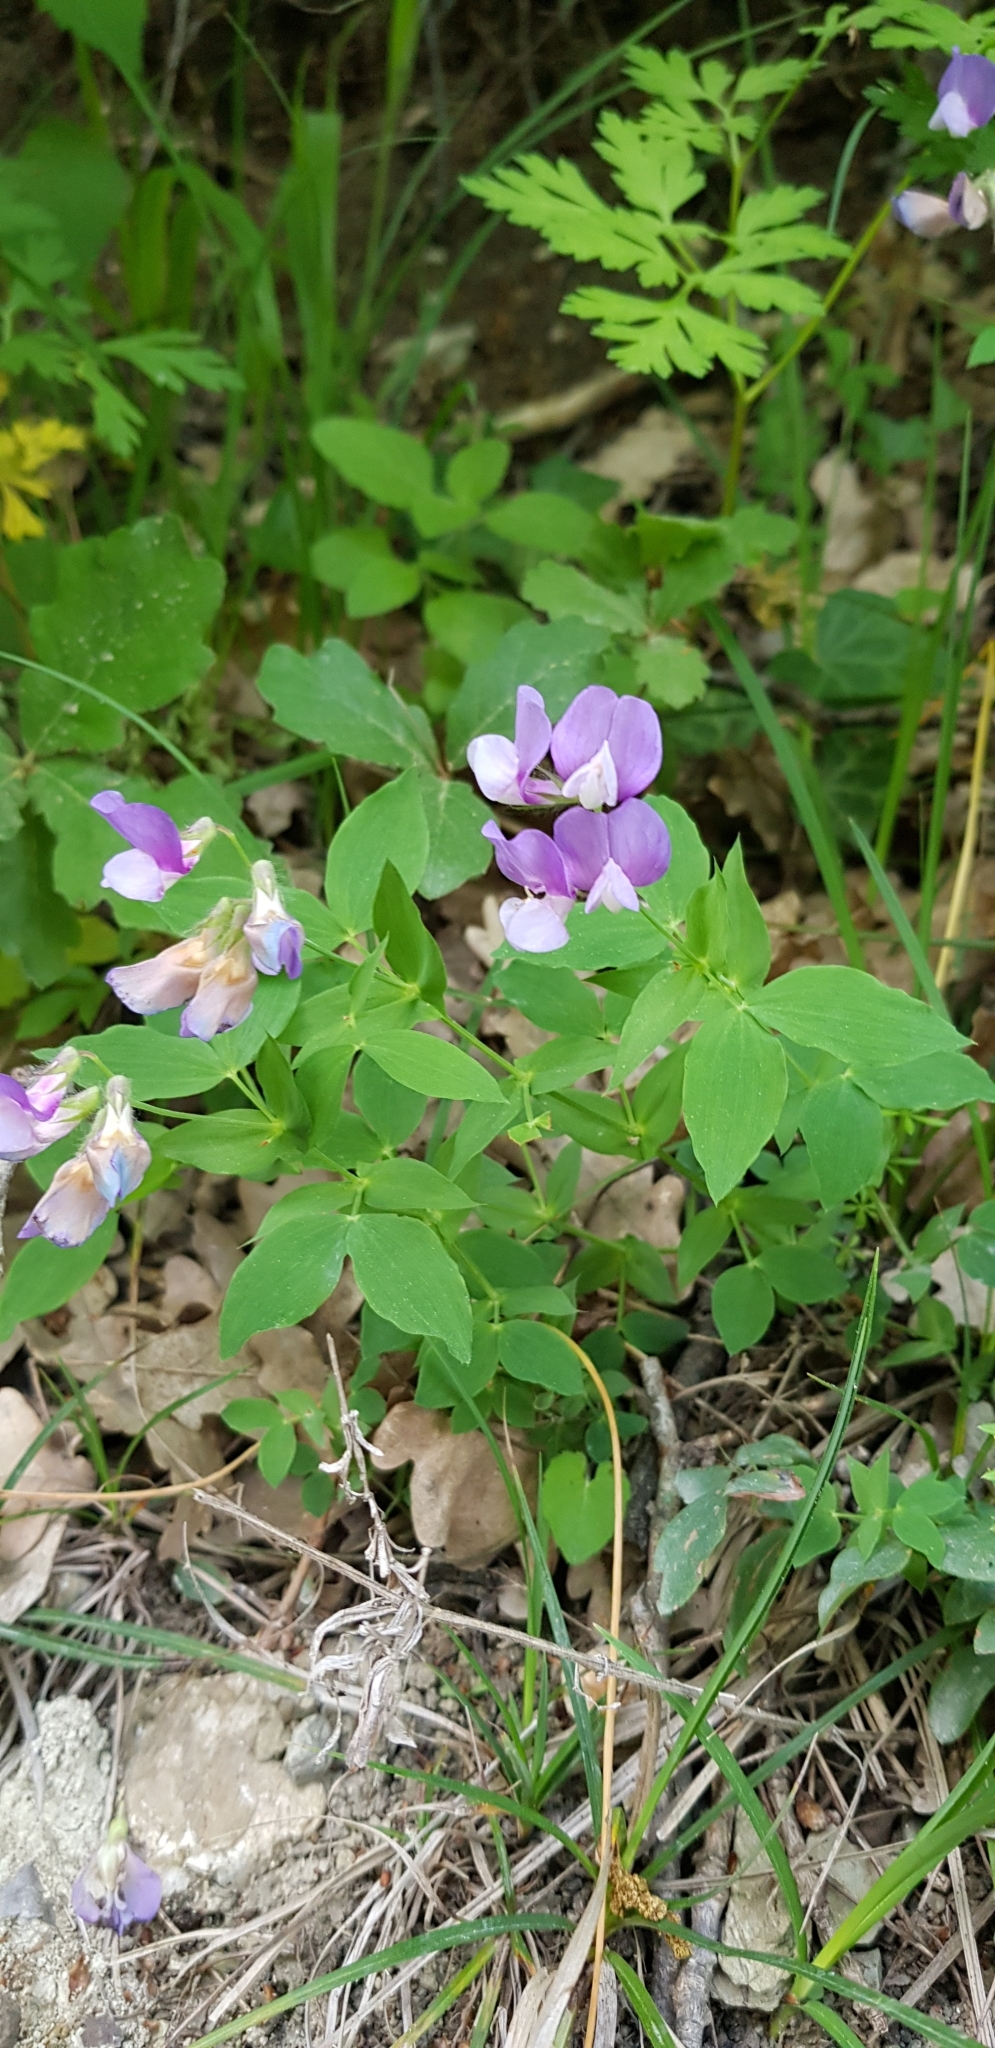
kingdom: Plantae
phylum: Tracheophyta
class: Magnoliopsida
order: Fabales
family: Fabaceae
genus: Lathyrus
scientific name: Lathyrus laxiflorus
